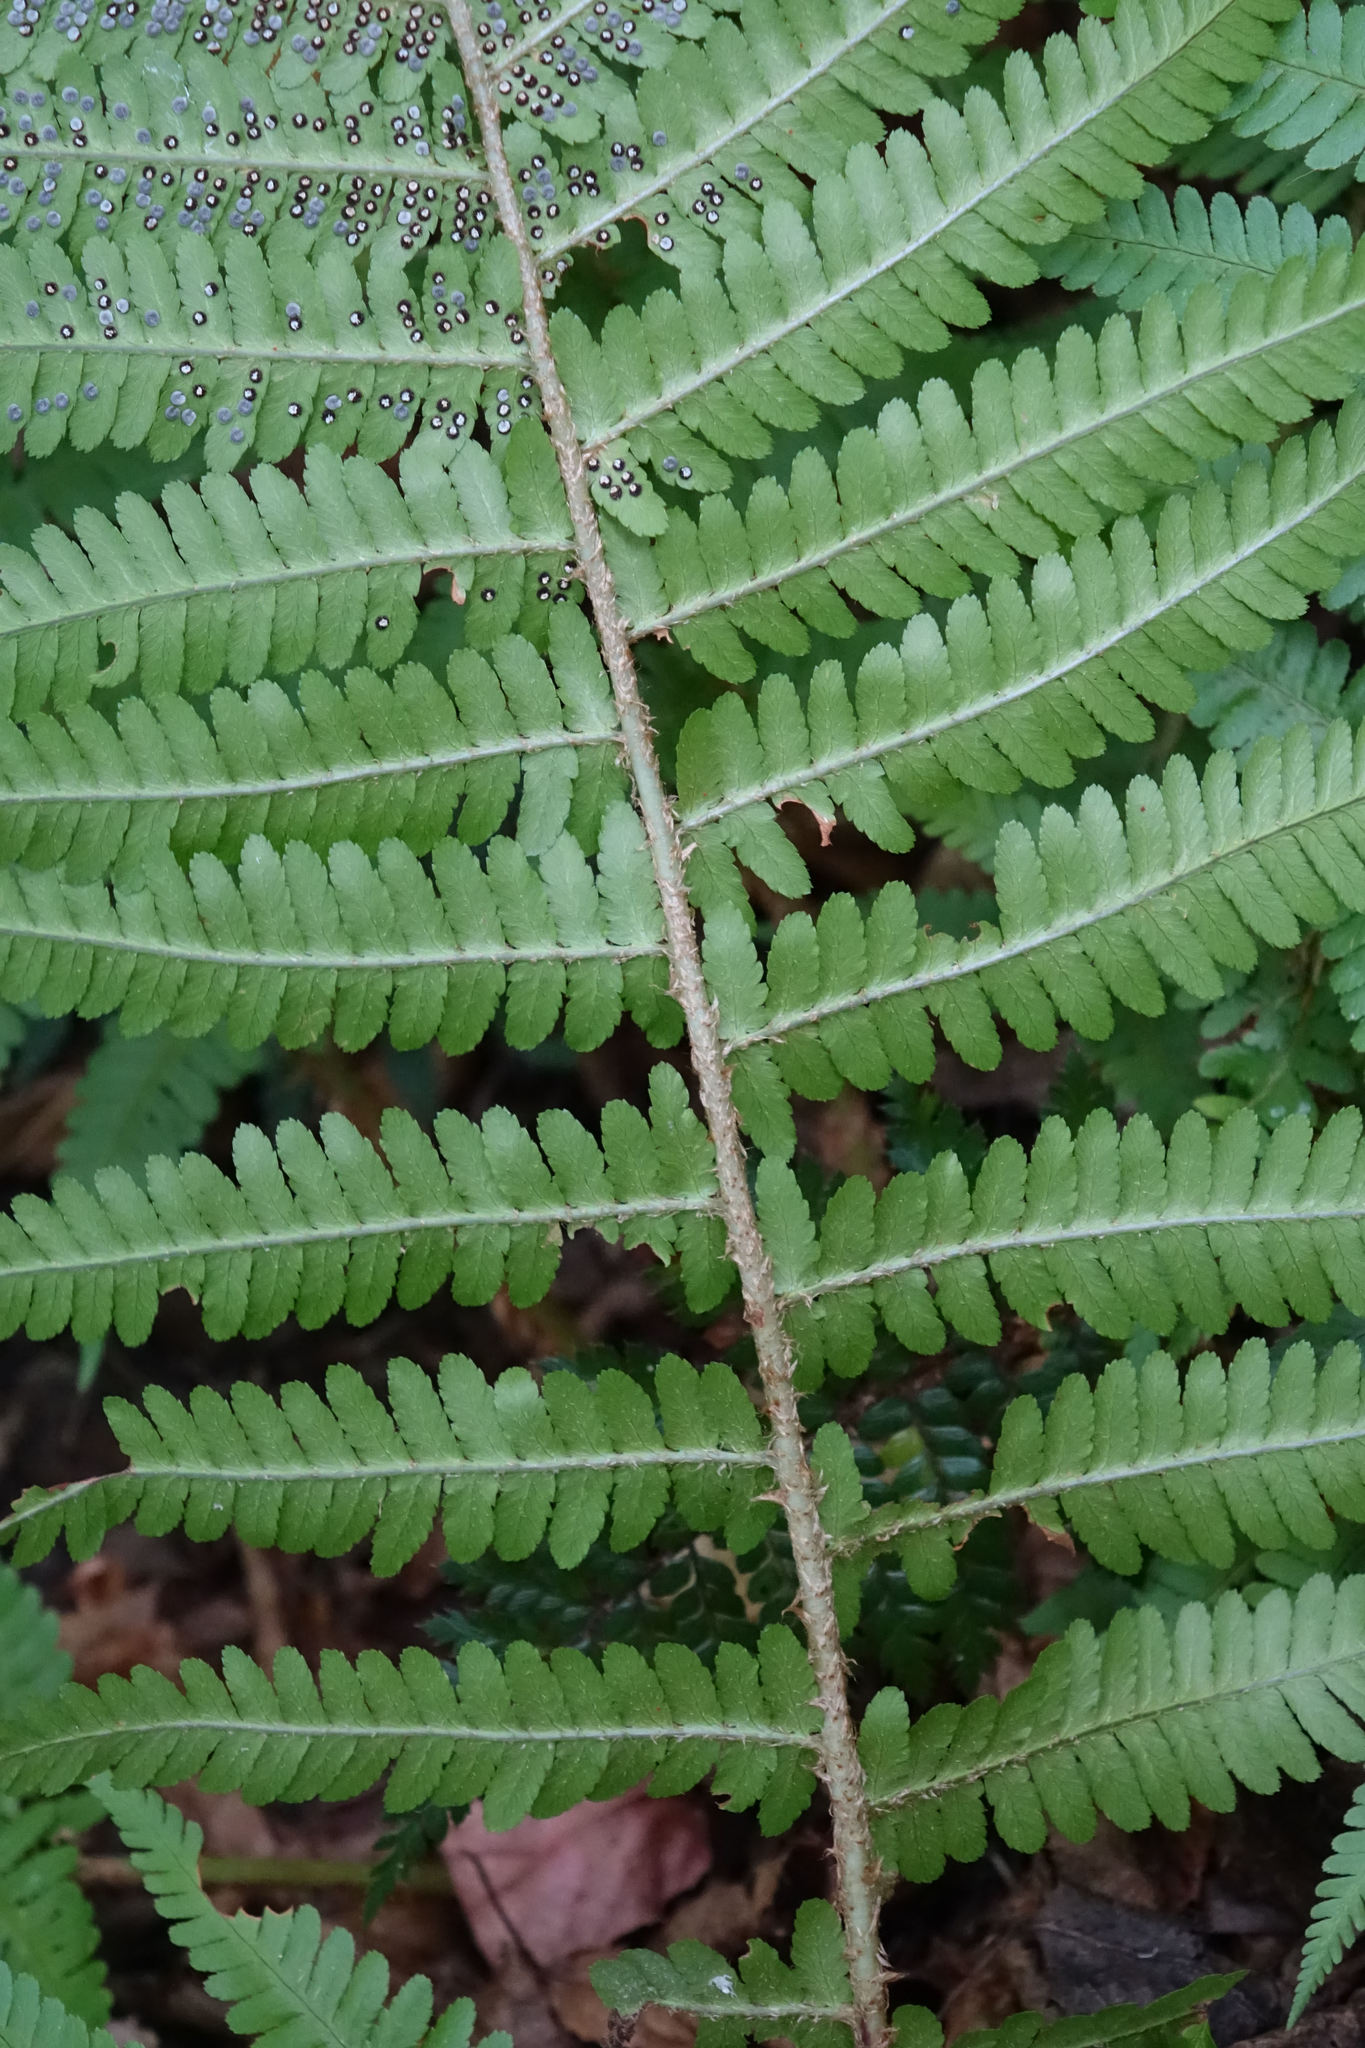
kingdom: Plantae
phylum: Tracheophyta
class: Polypodiopsida
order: Polypodiales
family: Dryopteridaceae
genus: Dryopteris
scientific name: Dryopteris filix-mas
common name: Male fern
